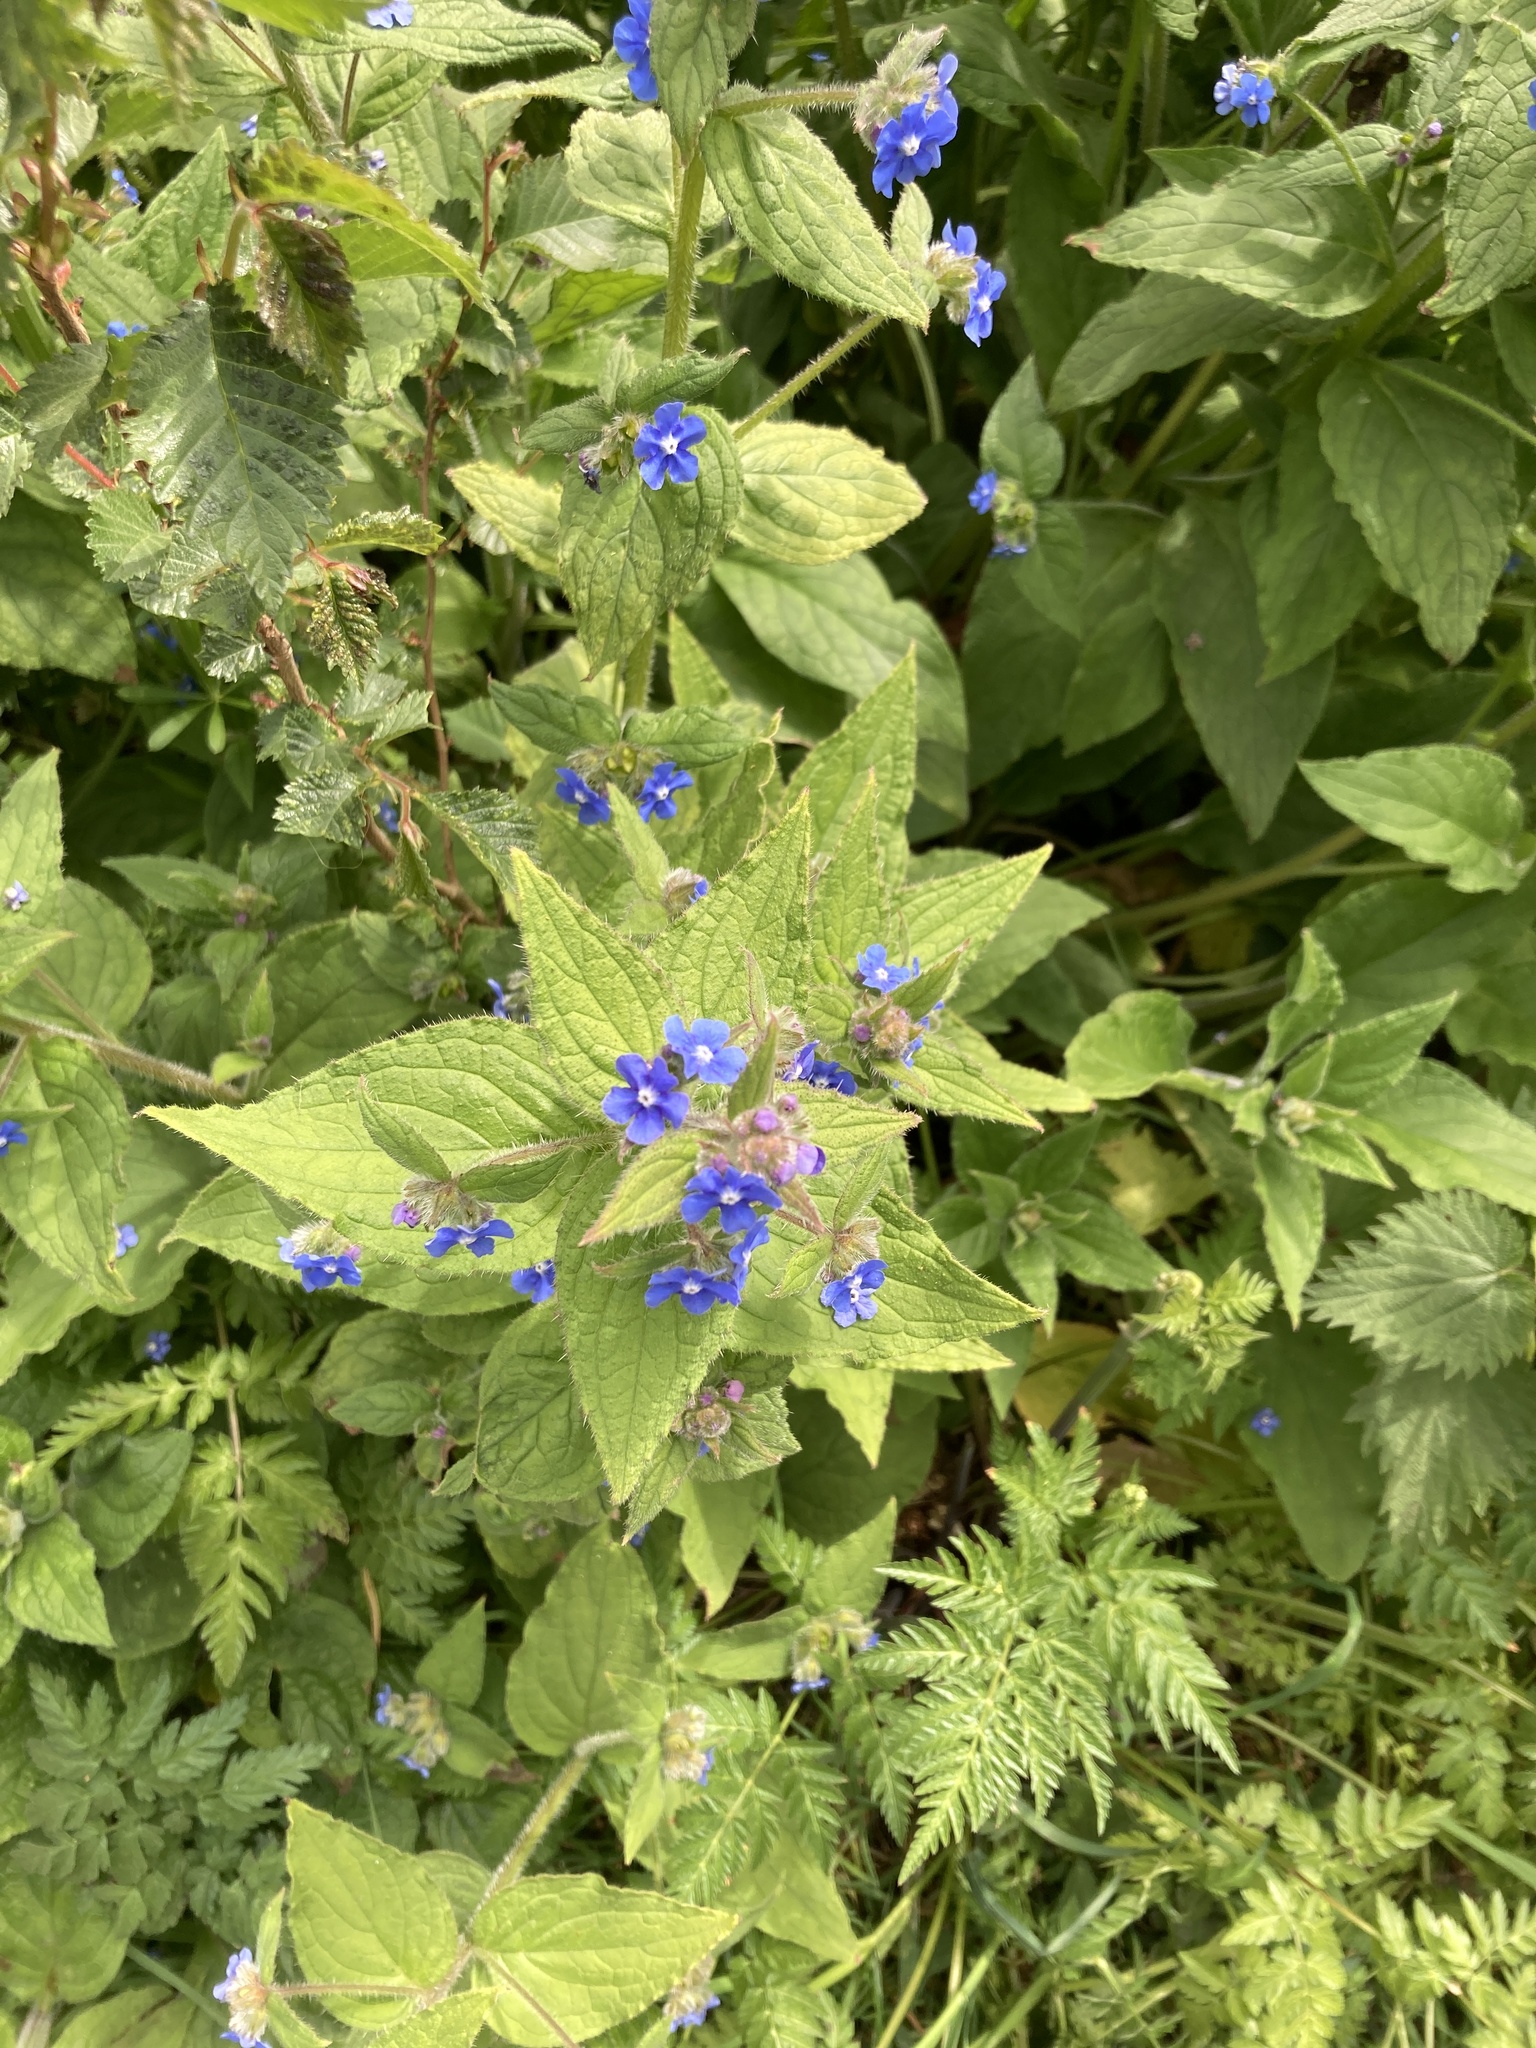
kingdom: Plantae
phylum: Tracheophyta
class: Magnoliopsida
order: Boraginales
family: Boraginaceae
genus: Pentaglottis
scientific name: Pentaglottis sempervirens
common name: Green alkanet
